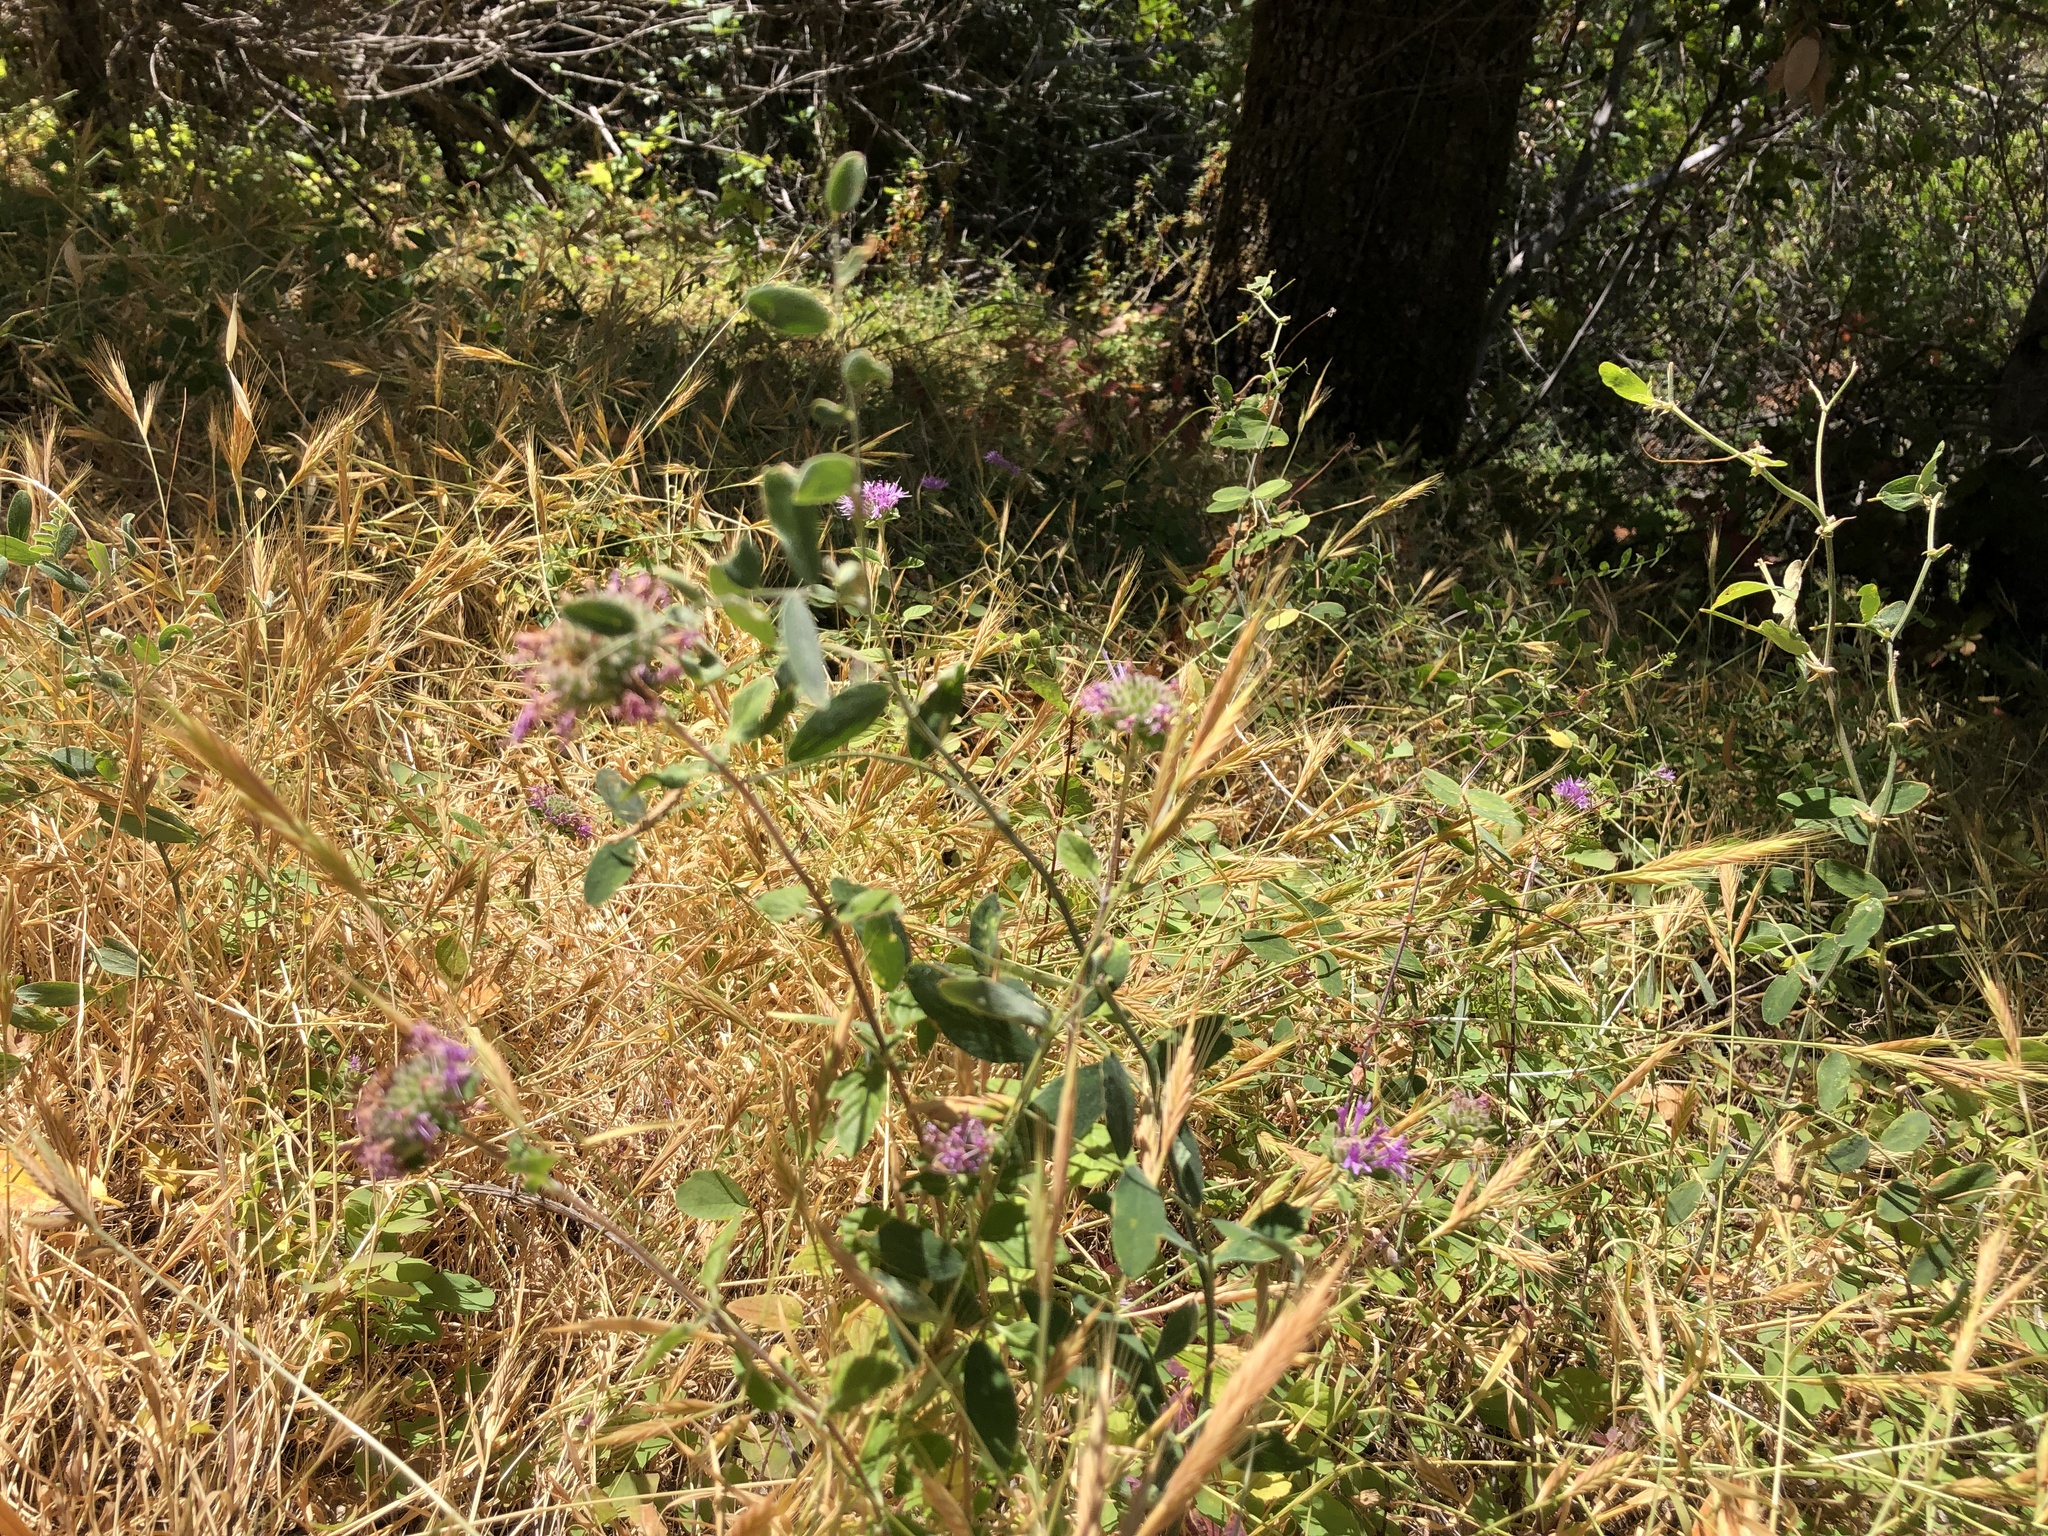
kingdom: Plantae
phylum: Tracheophyta
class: Magnoliopsida
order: Lamiales
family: Lamiaceae
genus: Monardella
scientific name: Monardella odoratissima
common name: Pacific monardella
